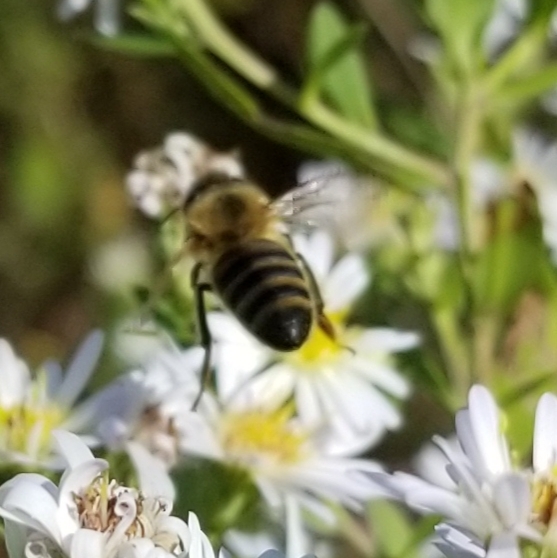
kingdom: Animalia
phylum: Arthropoda
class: Insecta
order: Hymenoptera
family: Apidae
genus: Apis
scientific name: Apis mellifera
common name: Honey bee
